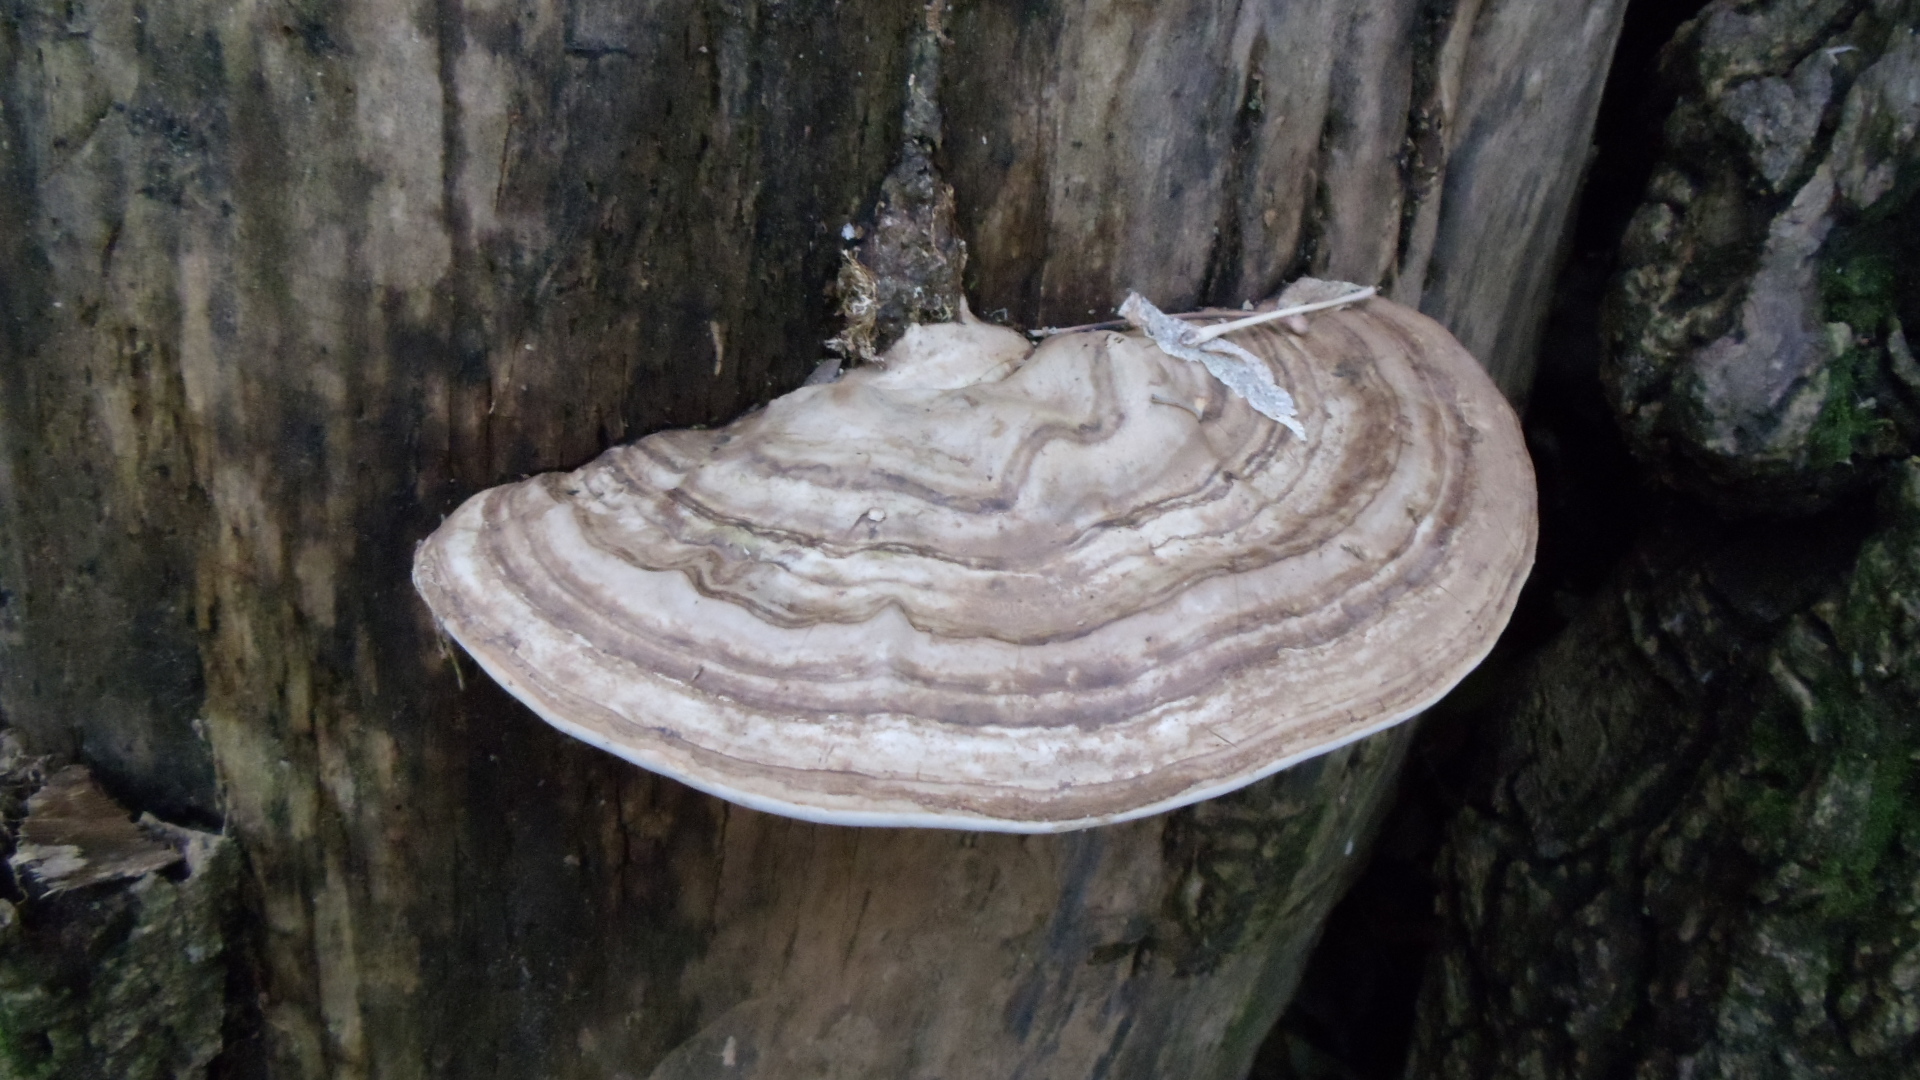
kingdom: Fungi
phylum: Basidiomycota
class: Agaricomycetes
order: Polyporales
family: Polyporaceae
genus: Ganoderma
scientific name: Ganoderma applanatum
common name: Artist's bracket
